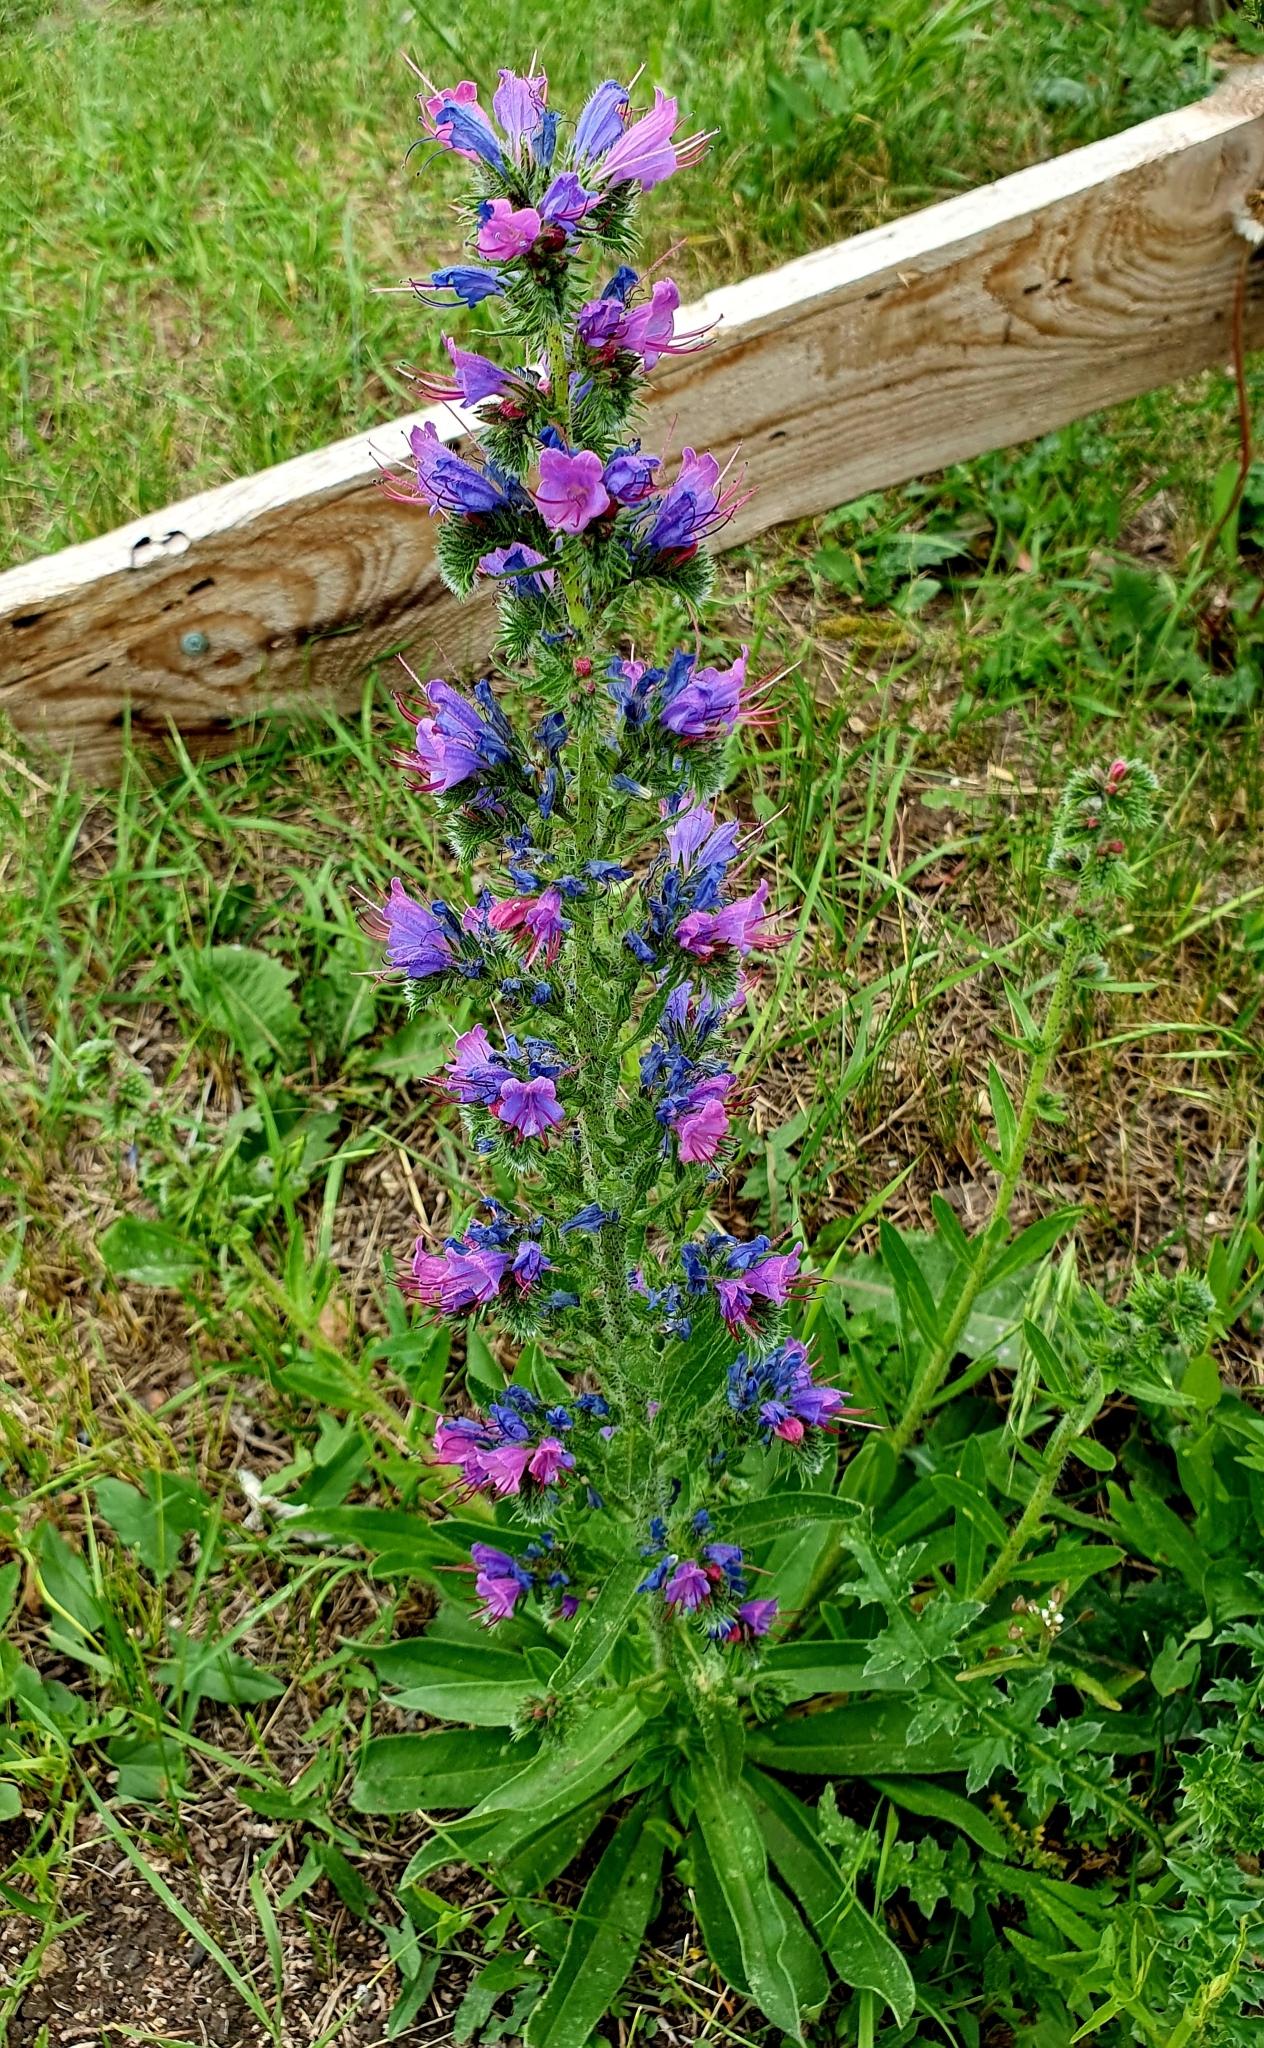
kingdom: Plantae
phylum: Tracheophyta
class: Magnoliopsida
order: Boraginales
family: Boraginaceae
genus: Echium
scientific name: Echium vulgare
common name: Common viper's bugloss
